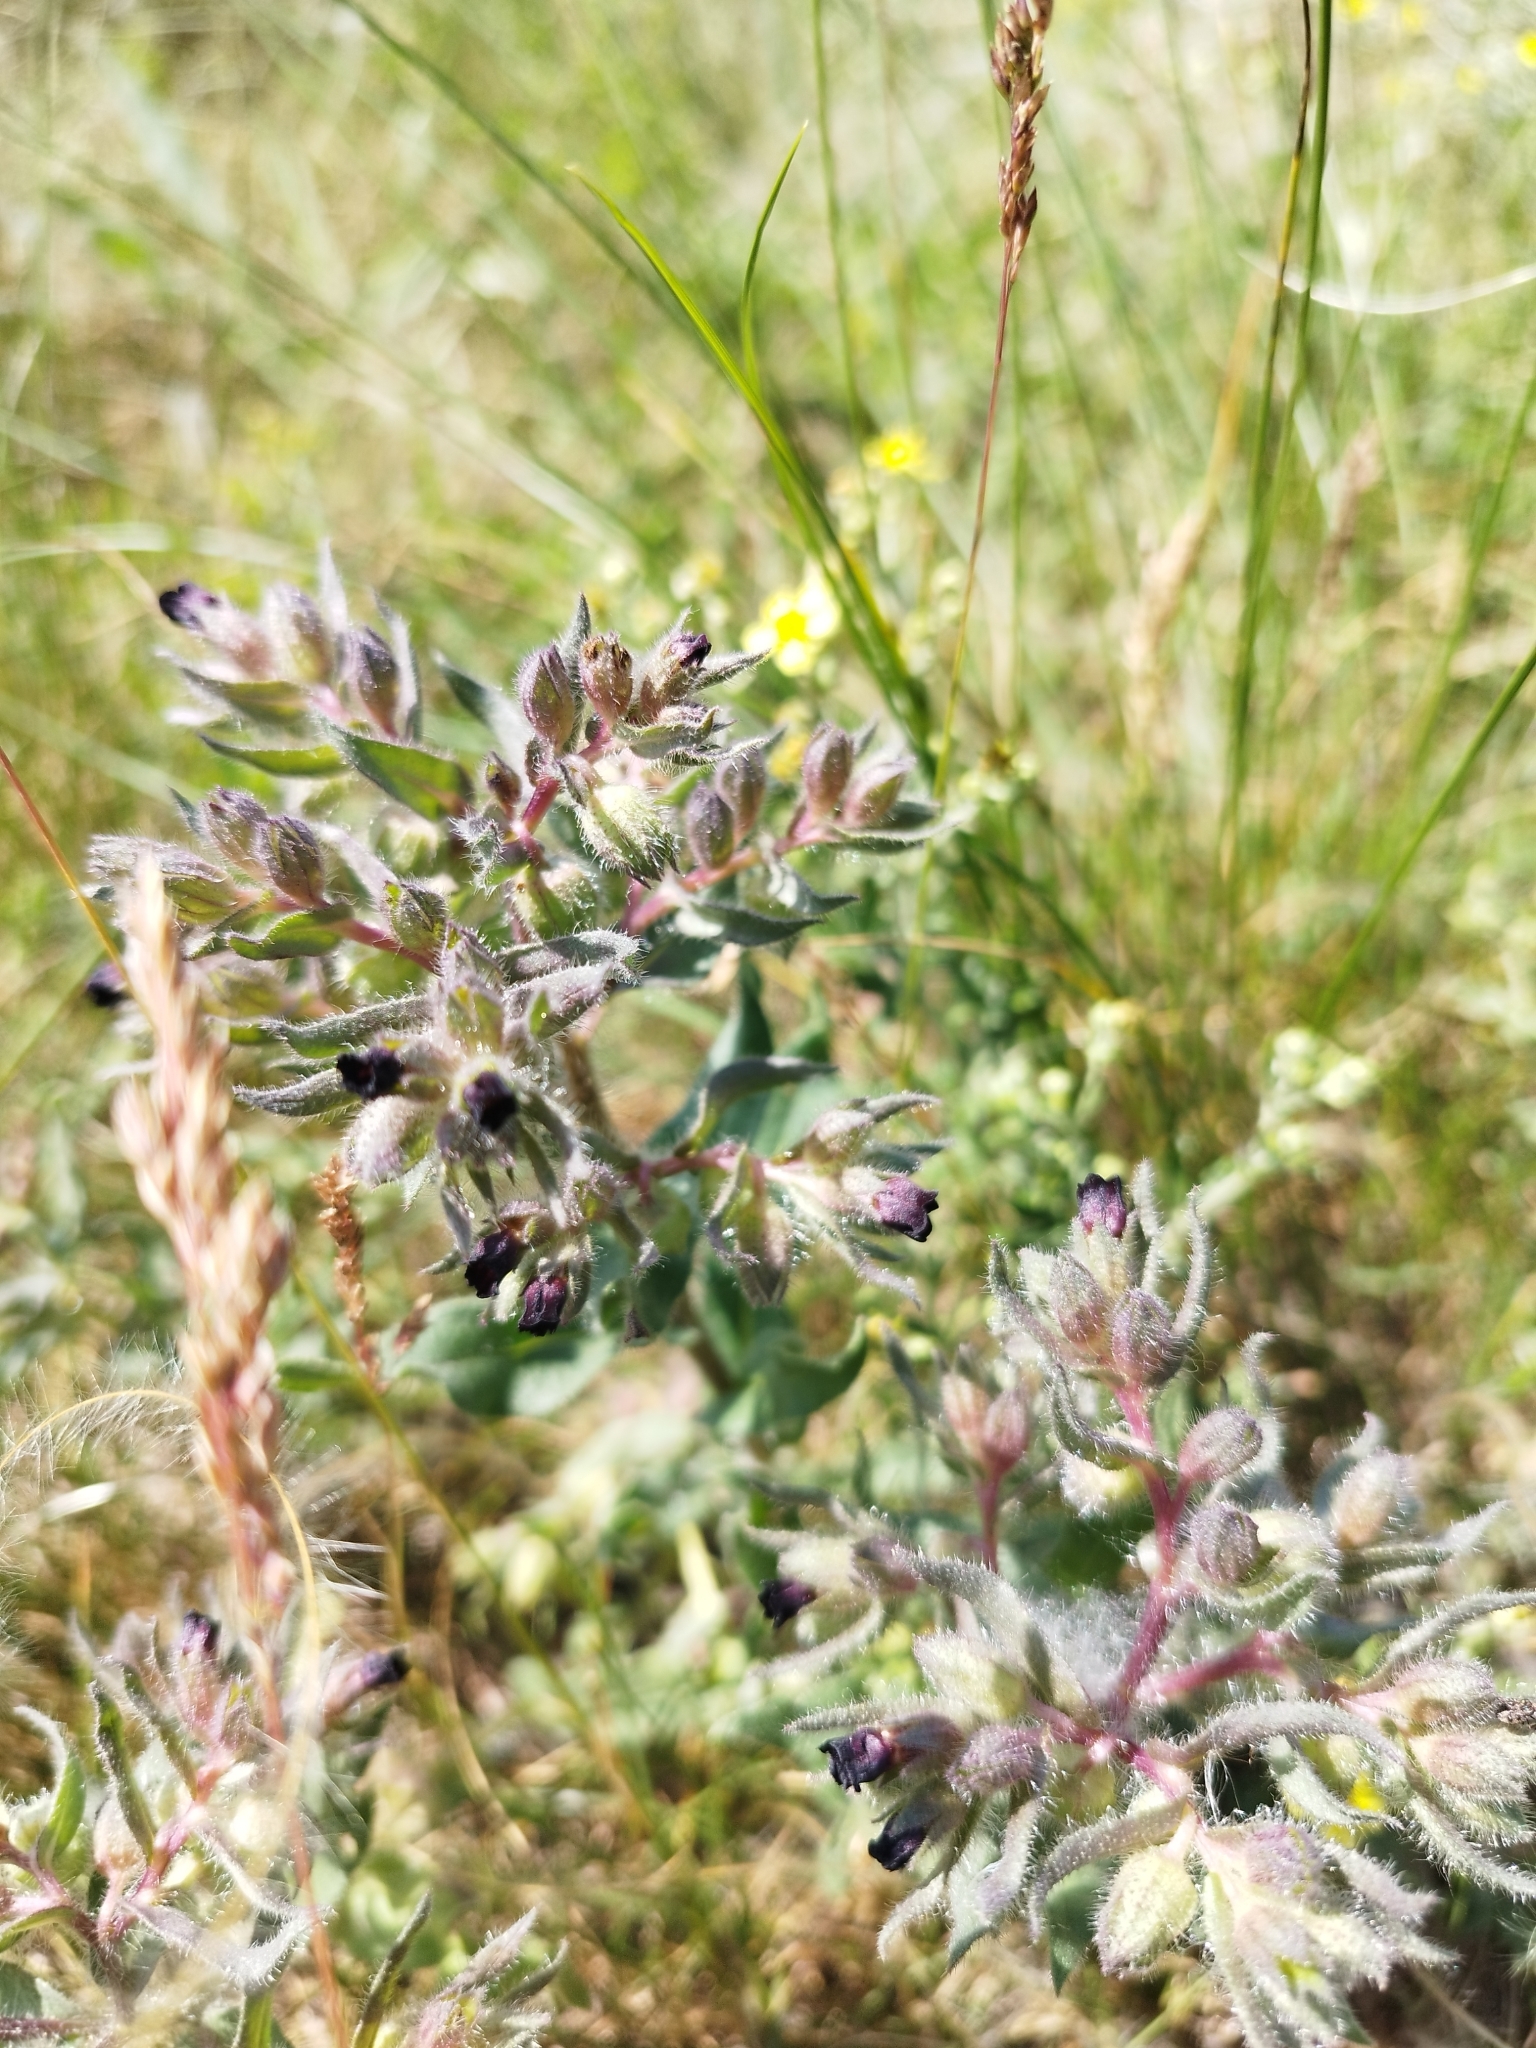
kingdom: Plantae
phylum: Tracheophyta
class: Magnoliopsida
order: Boraginales
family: Boraginaceae
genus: Nonea
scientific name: Nonea pulla
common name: Brown nonea
